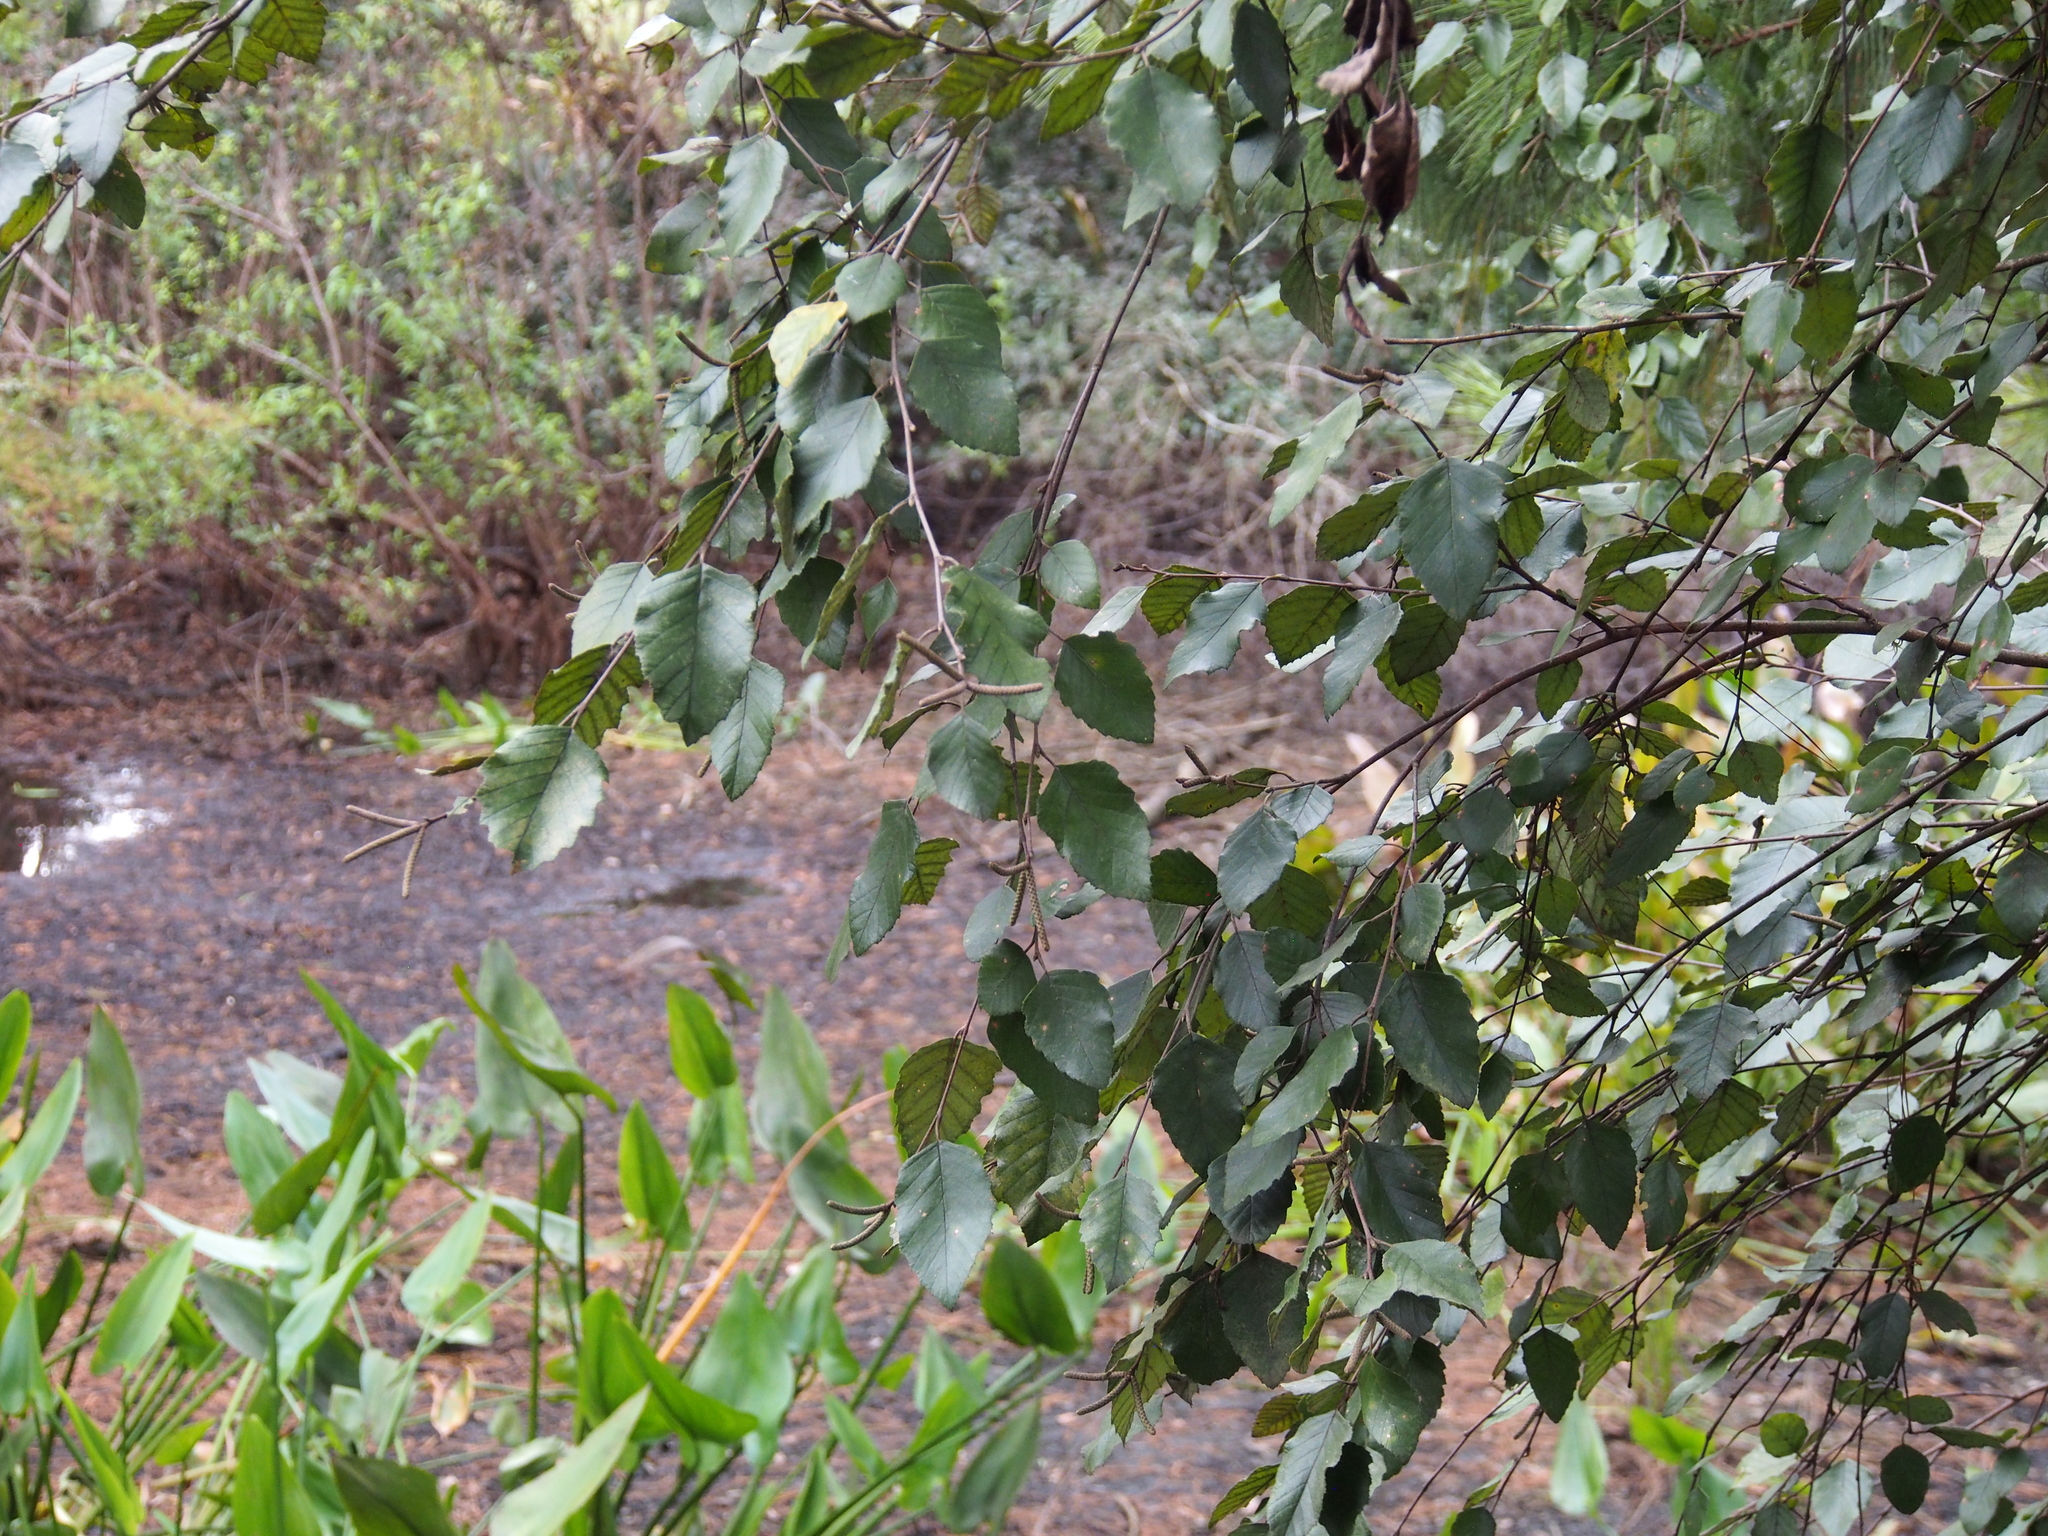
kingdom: Plantae
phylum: Tracheophyta
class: Magnoliopsida
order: Fagales
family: Betulaceae
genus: Betula
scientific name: Betula nigra
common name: Black birch
